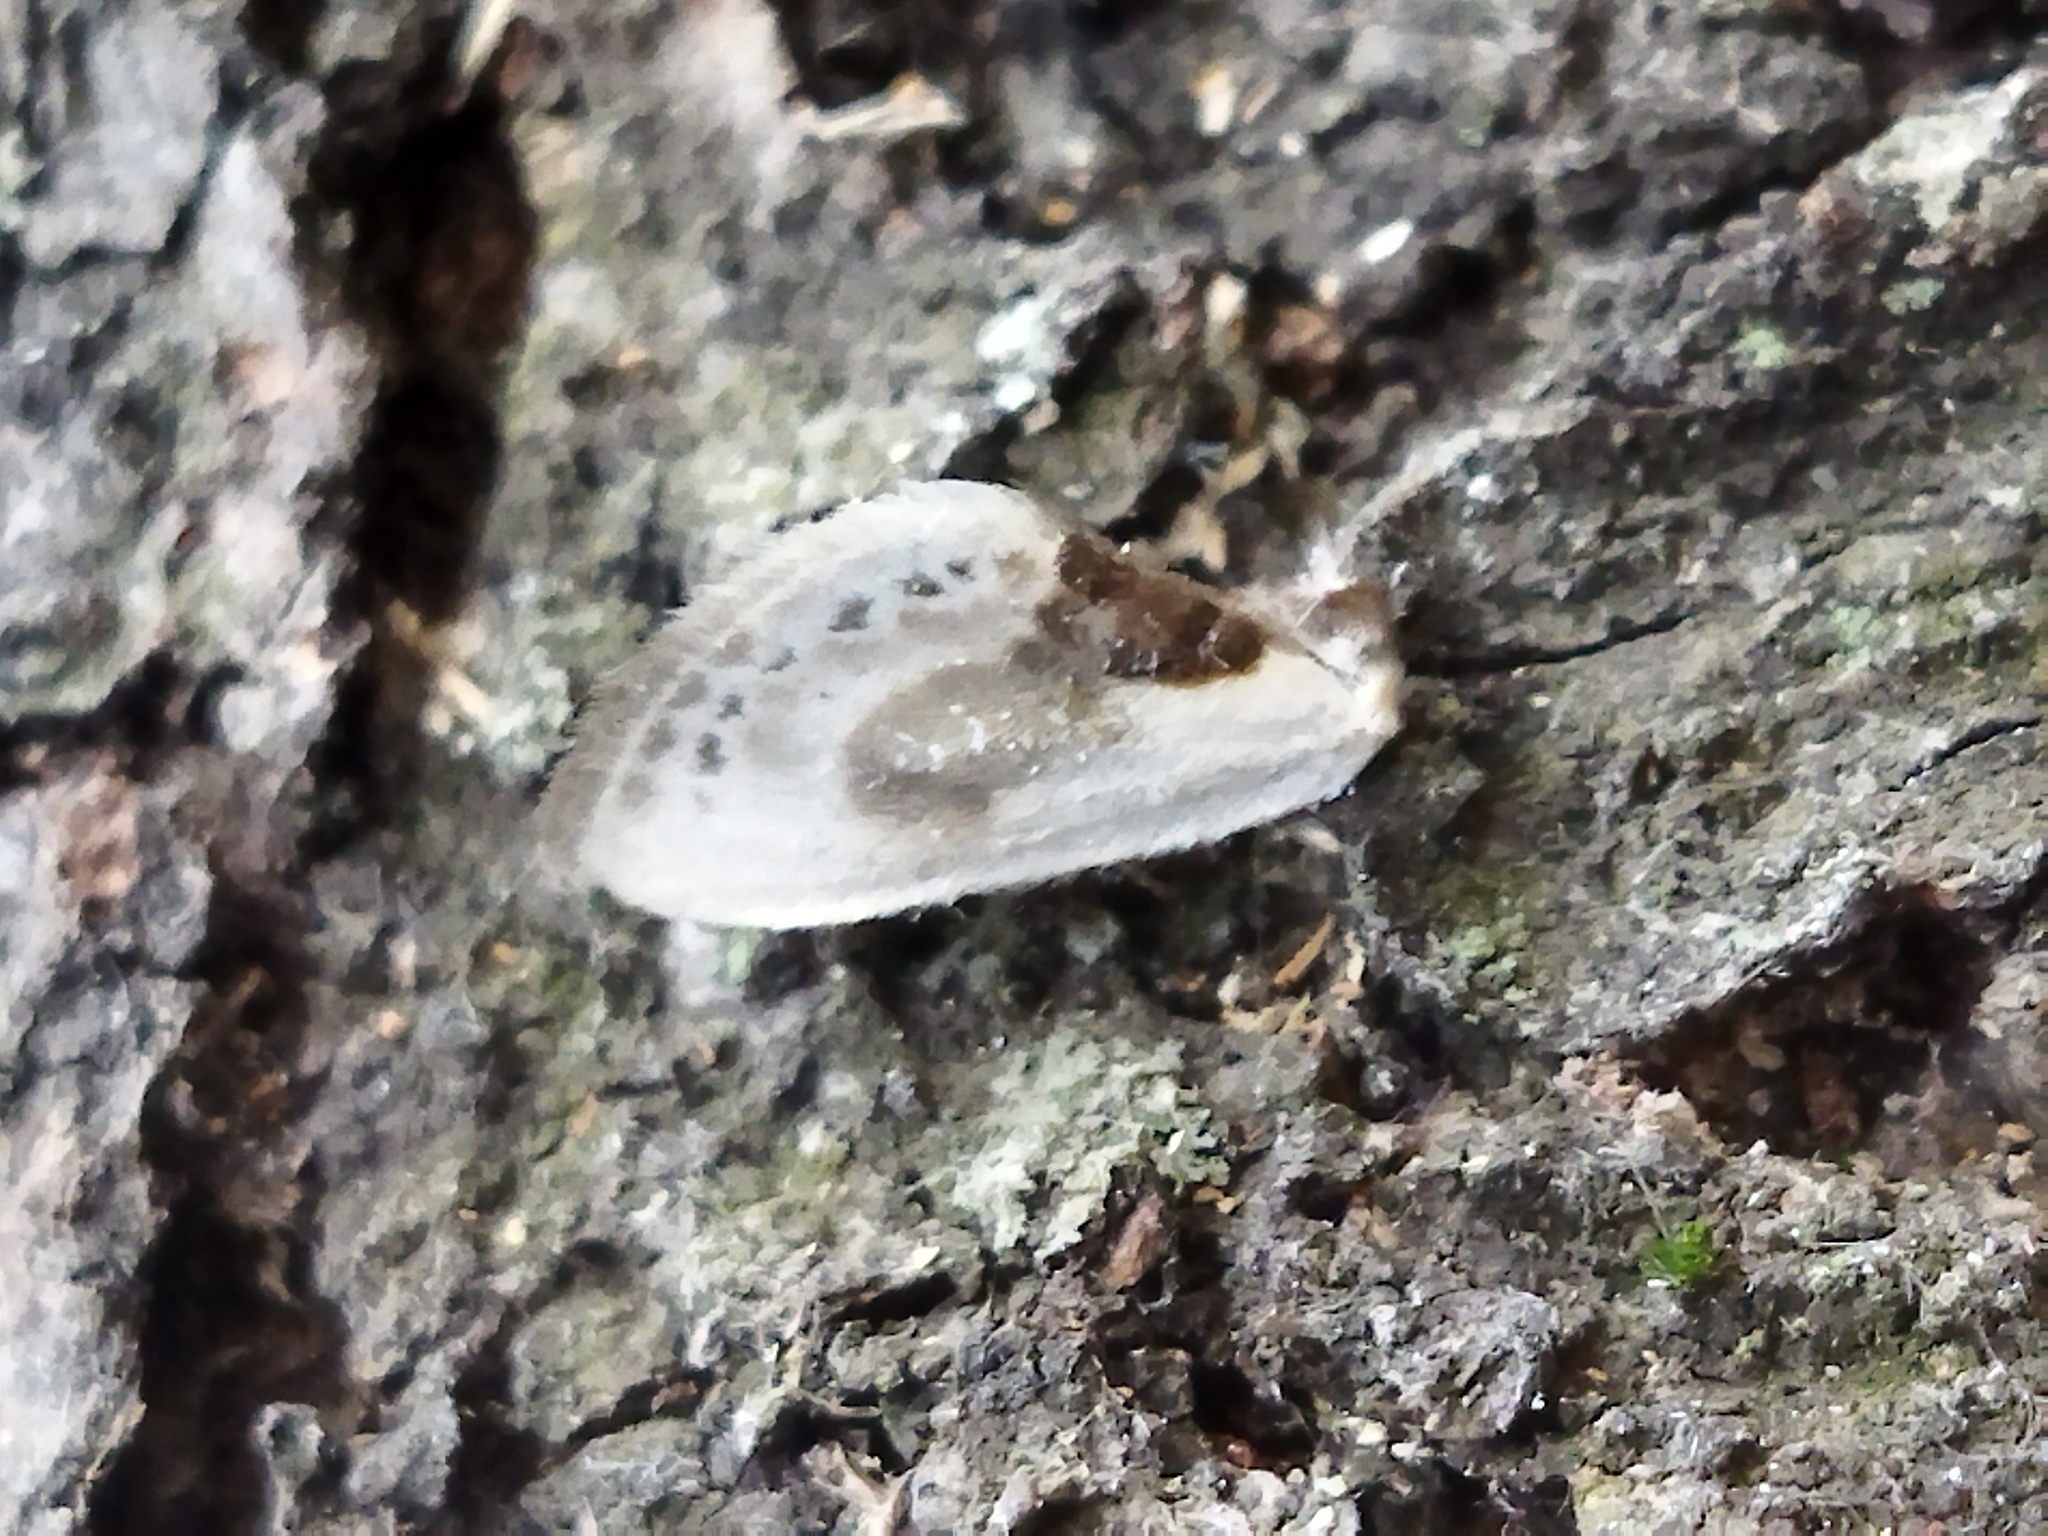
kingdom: Animalia
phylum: Arthropoda
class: Insecta
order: Lepidoptera
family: Drepanidae
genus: Cilix
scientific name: Cilix glaucata
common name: Chinese character
